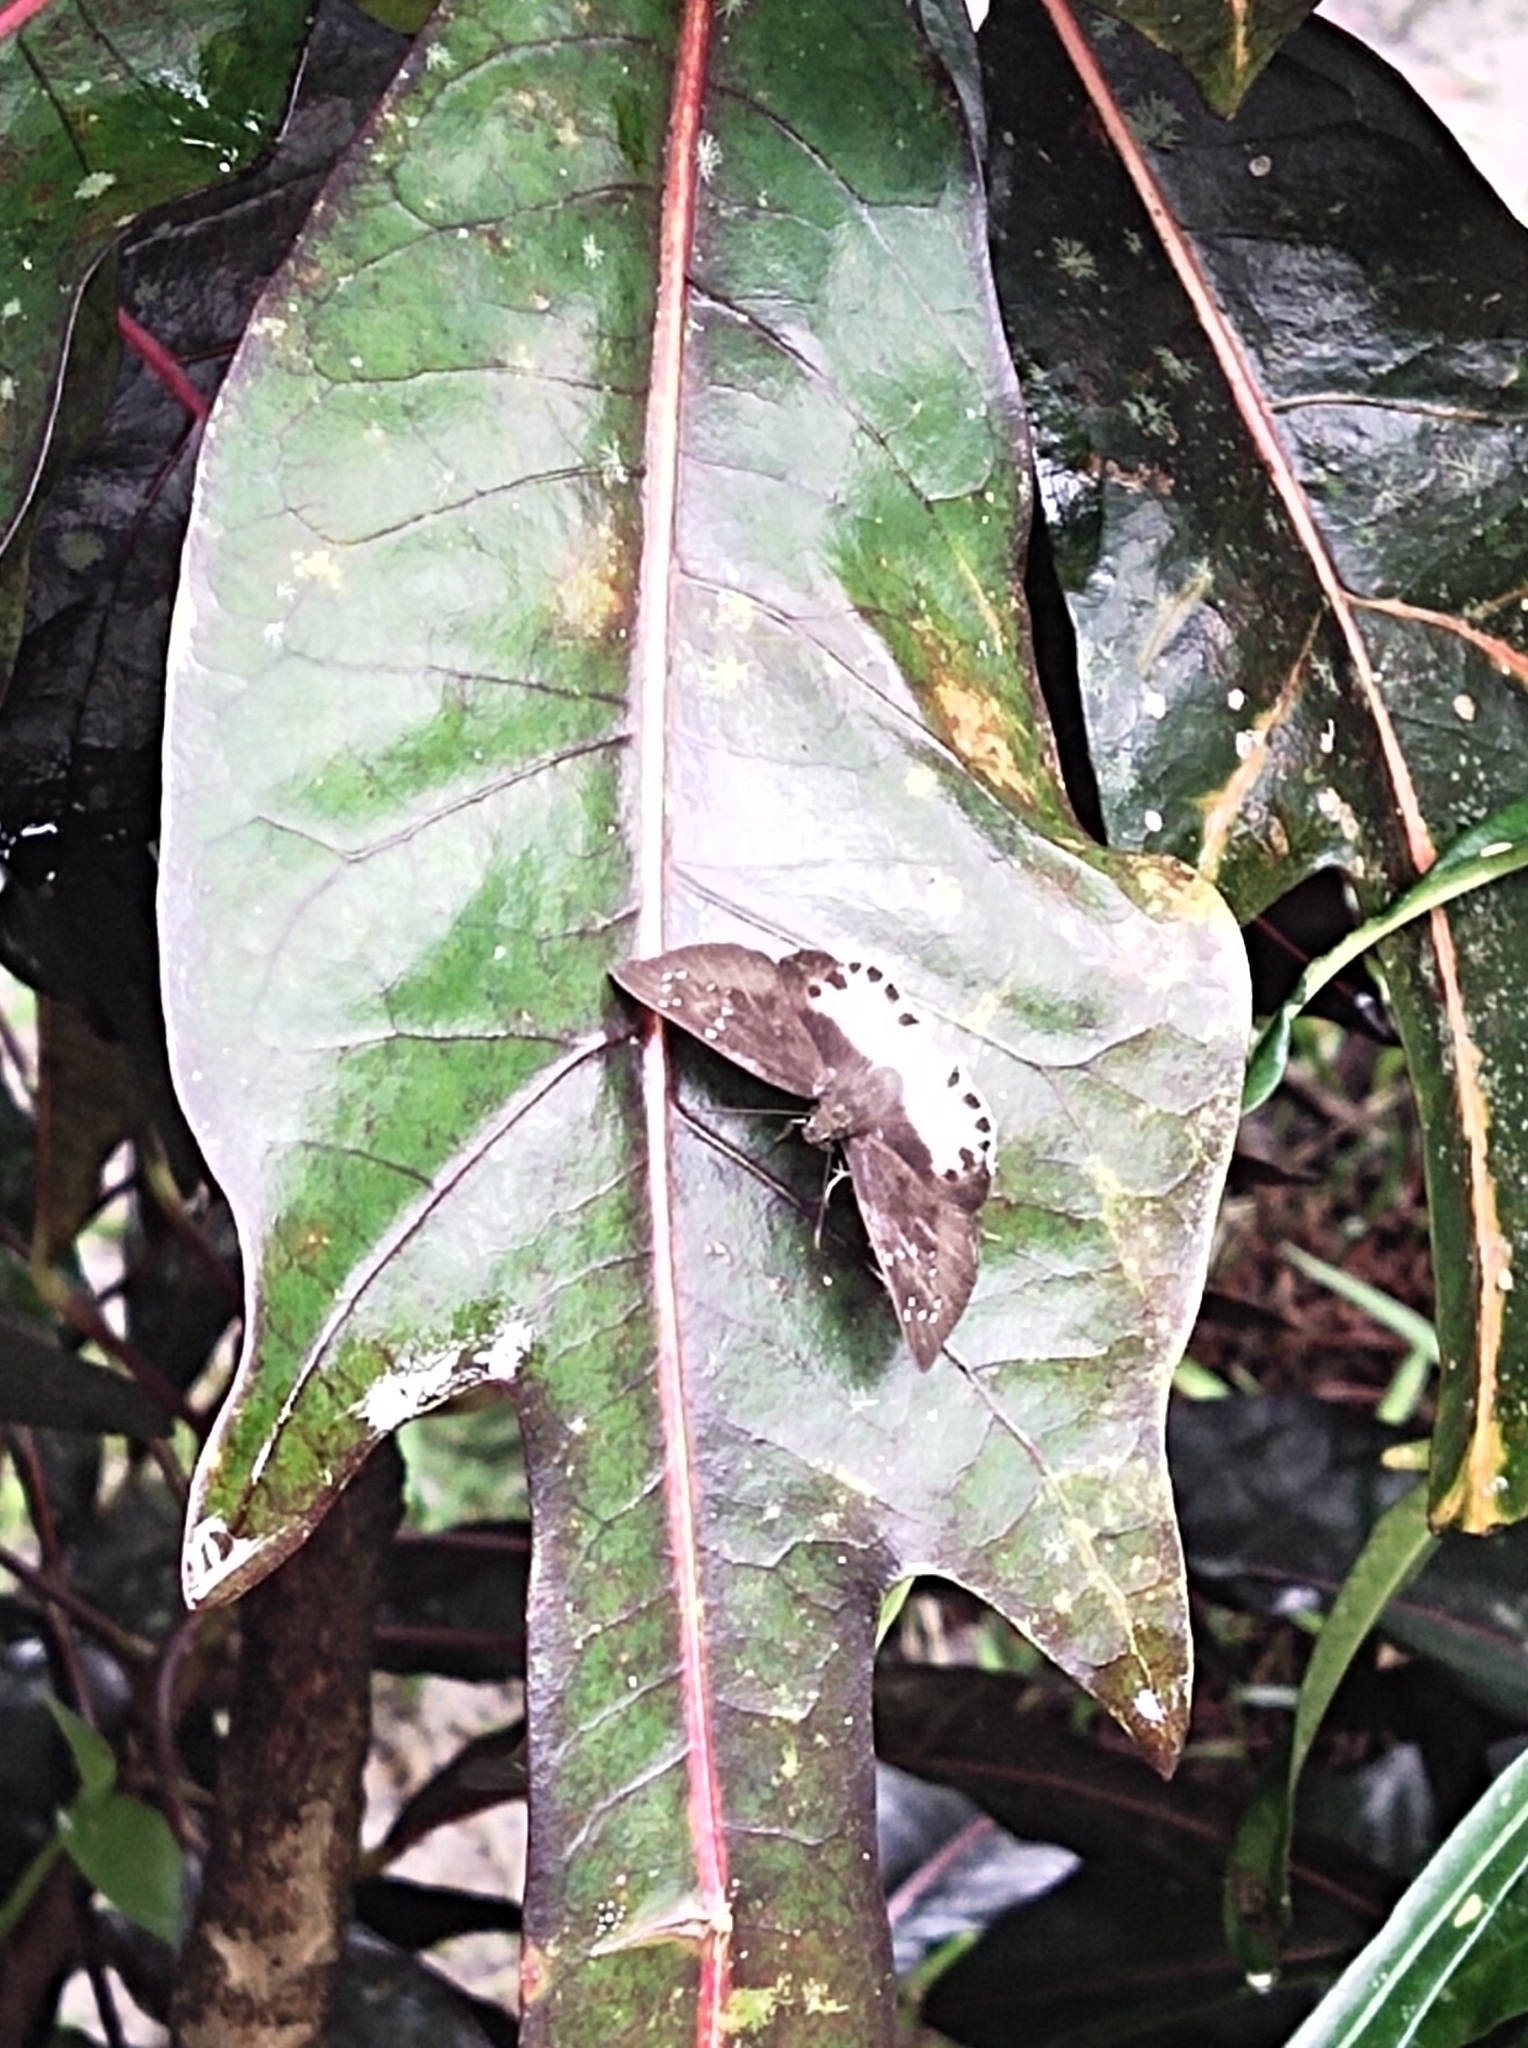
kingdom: Animalia
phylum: Arthropoda
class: Insecta
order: Lepidoptera
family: Hesperiidae
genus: Tagiades
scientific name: Tagiades litigiosa
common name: Water snow flat
